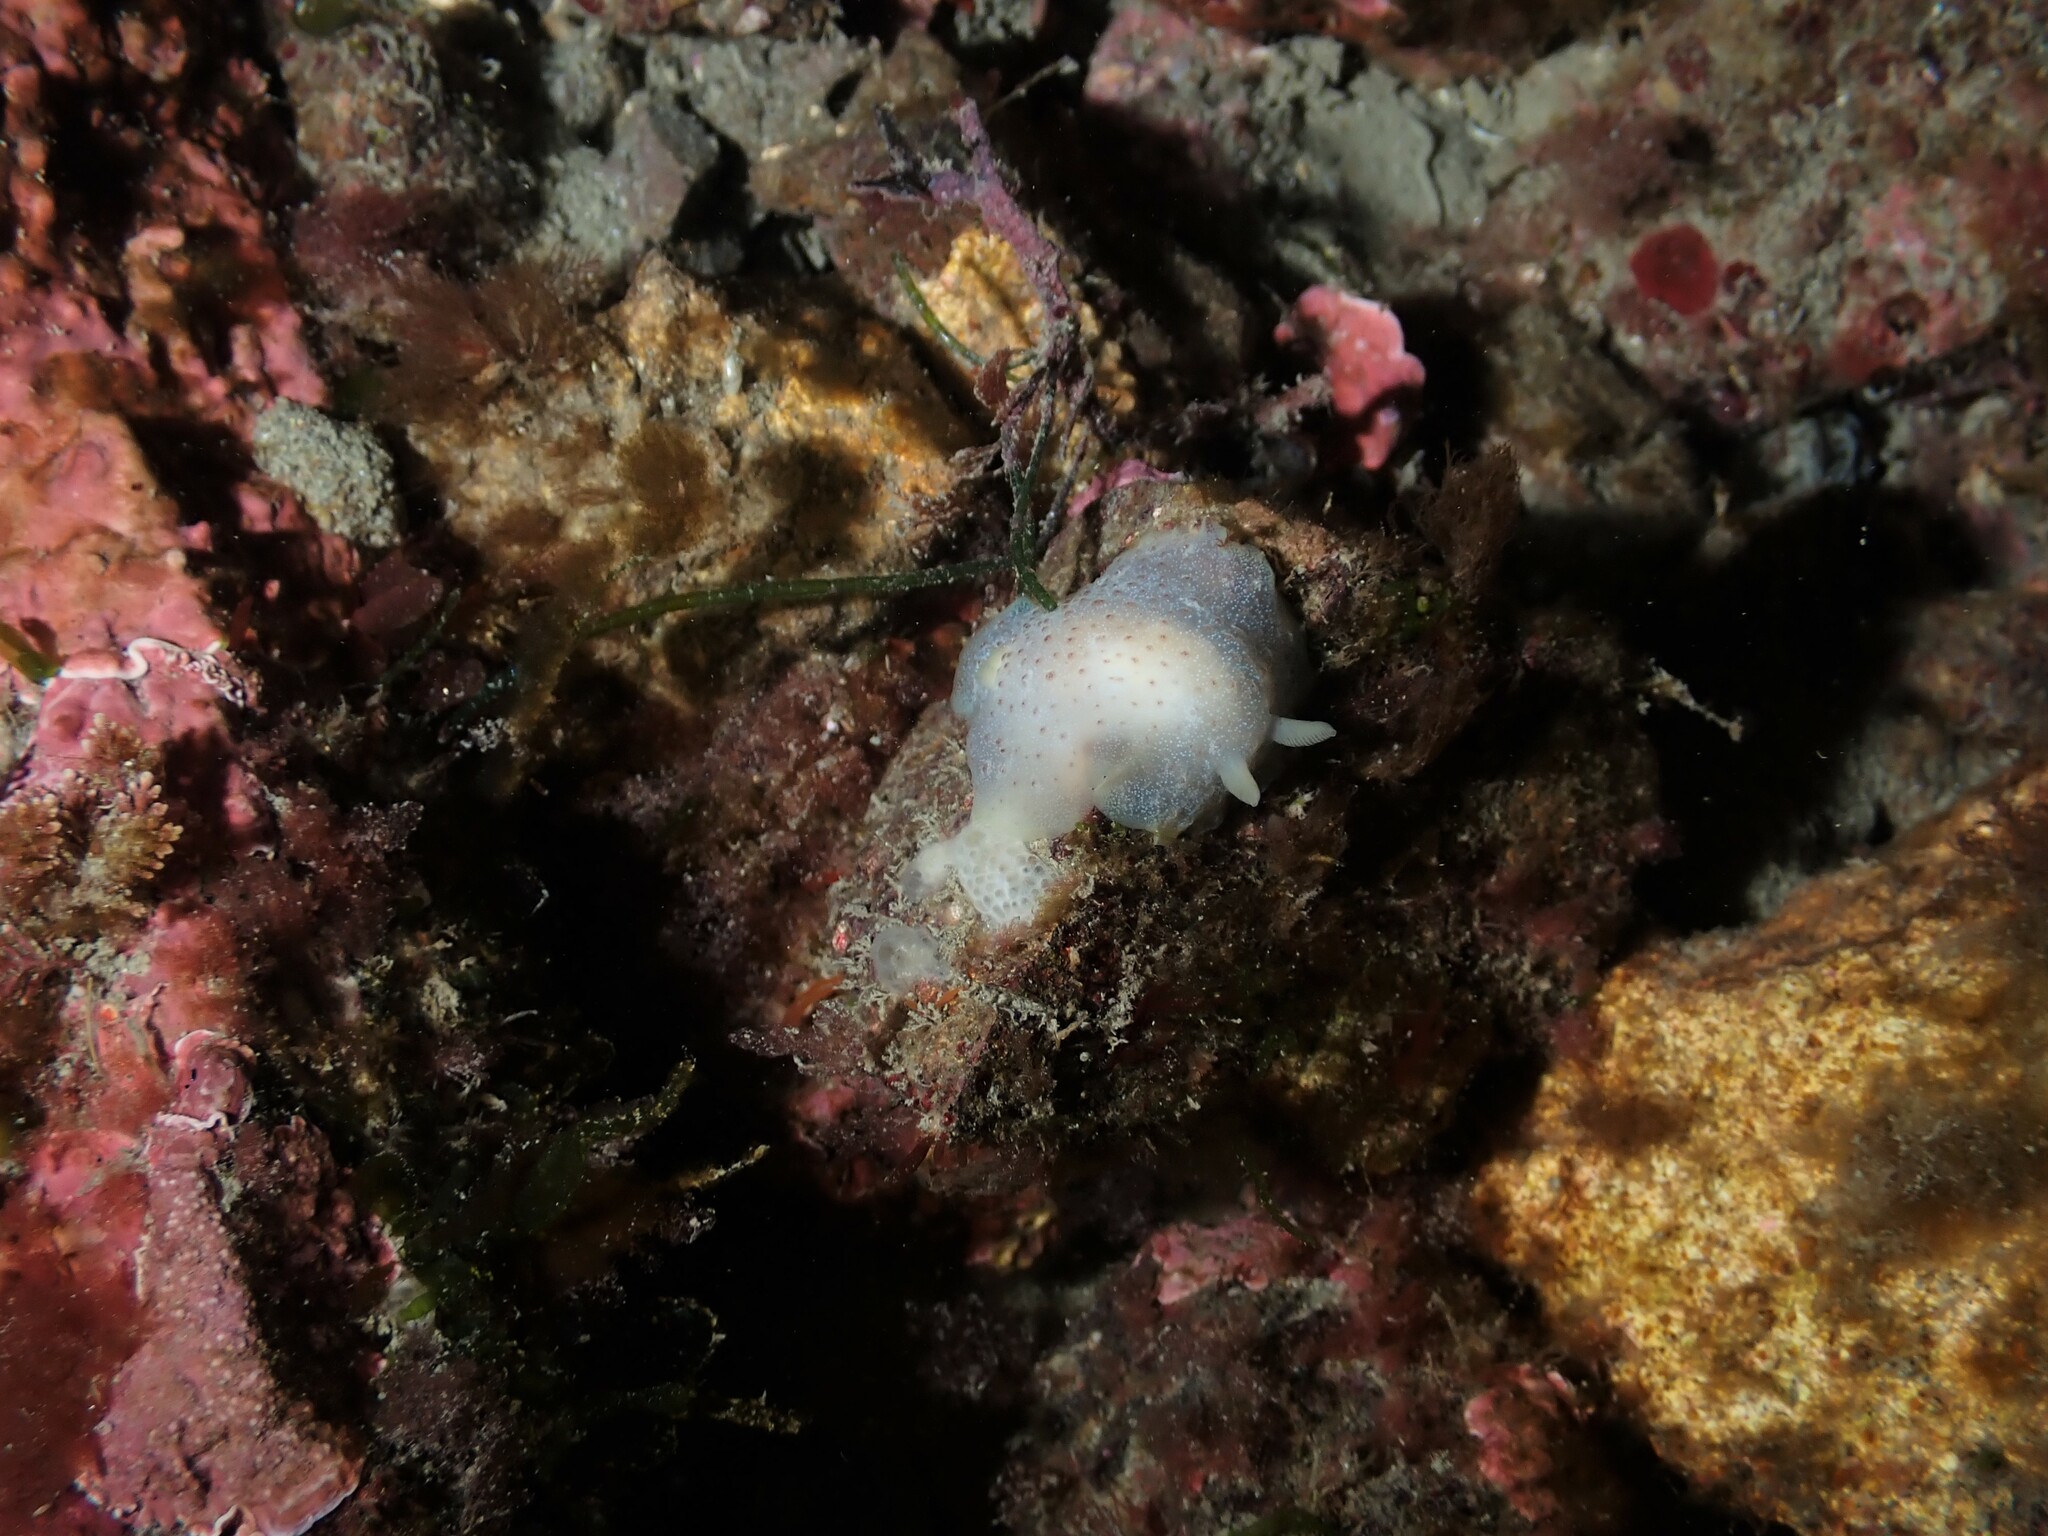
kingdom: Animalia
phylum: Mollusca
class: Gastropoda
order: Nudibranchia
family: Dendrodorididae
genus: Dendrodoris
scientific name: Dendrodoris citrina
